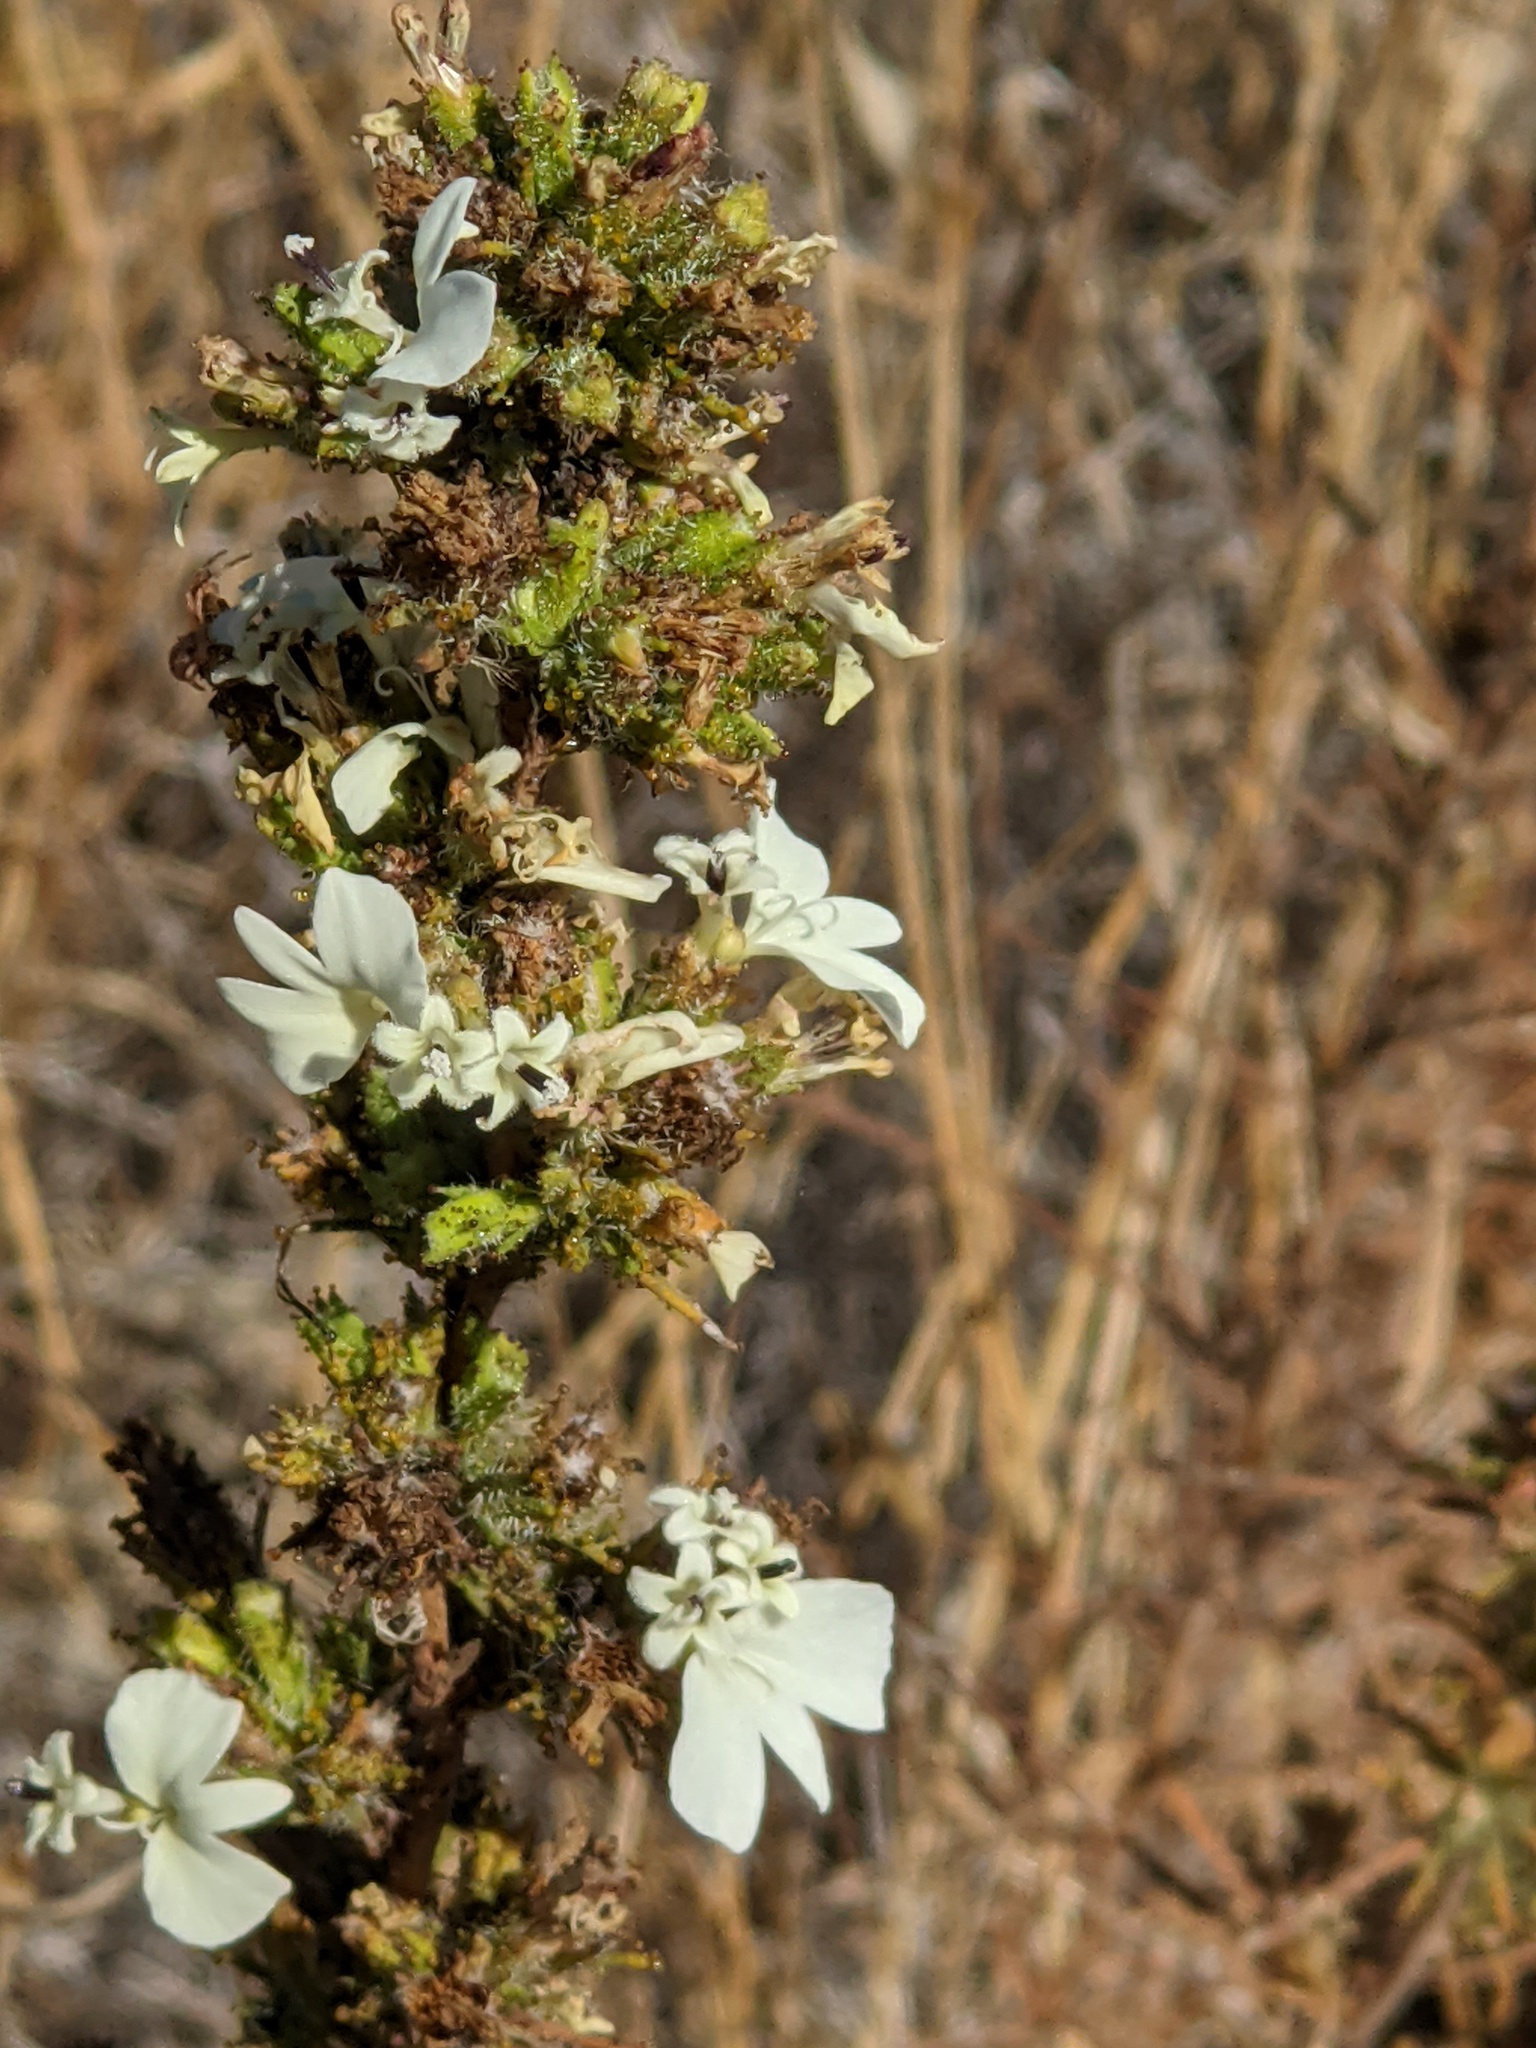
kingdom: Plantae
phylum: Tracheophyta
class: Magnoliopsida
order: Asterales
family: Asteraceae
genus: Calycadenia
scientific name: Calycadenia multiglandulosa
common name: Sticky calycadenia
